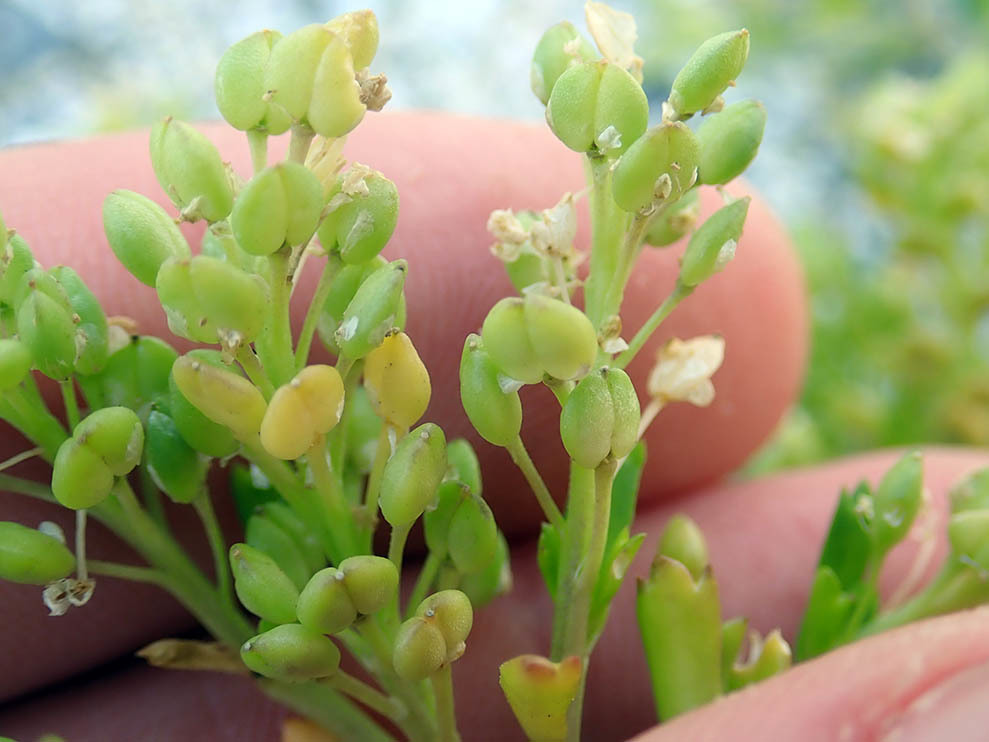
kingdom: Plantae
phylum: Tracheophyta
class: Magnoliopsida
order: Brassicales
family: Brassicaceae
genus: Lepidium
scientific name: Lepidium rekohuense
